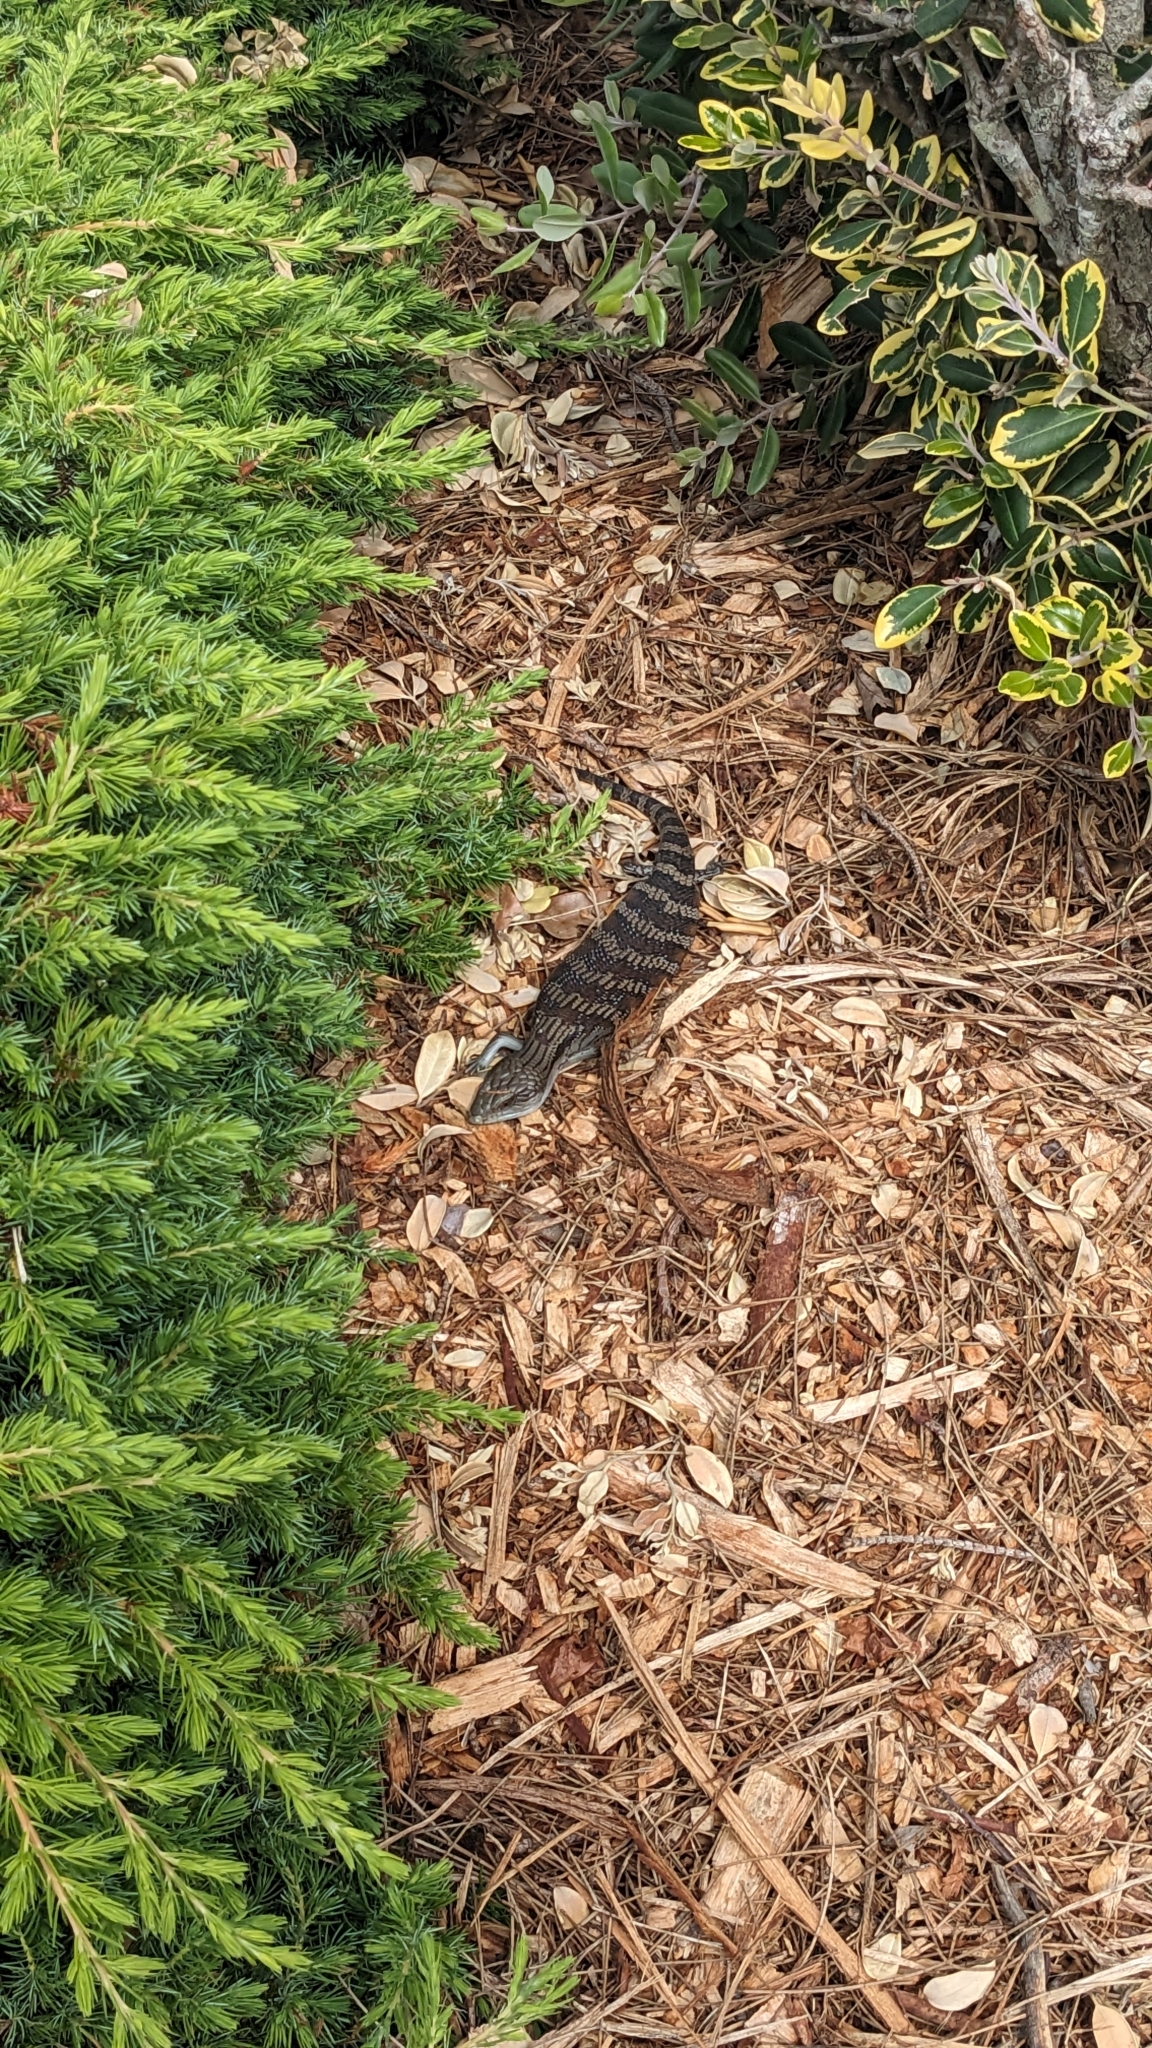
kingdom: Animalia
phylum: Chordata
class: Squamata
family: Scincidae
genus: Tiliqua
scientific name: Tiliqua scincoides
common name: Common bluetongue
